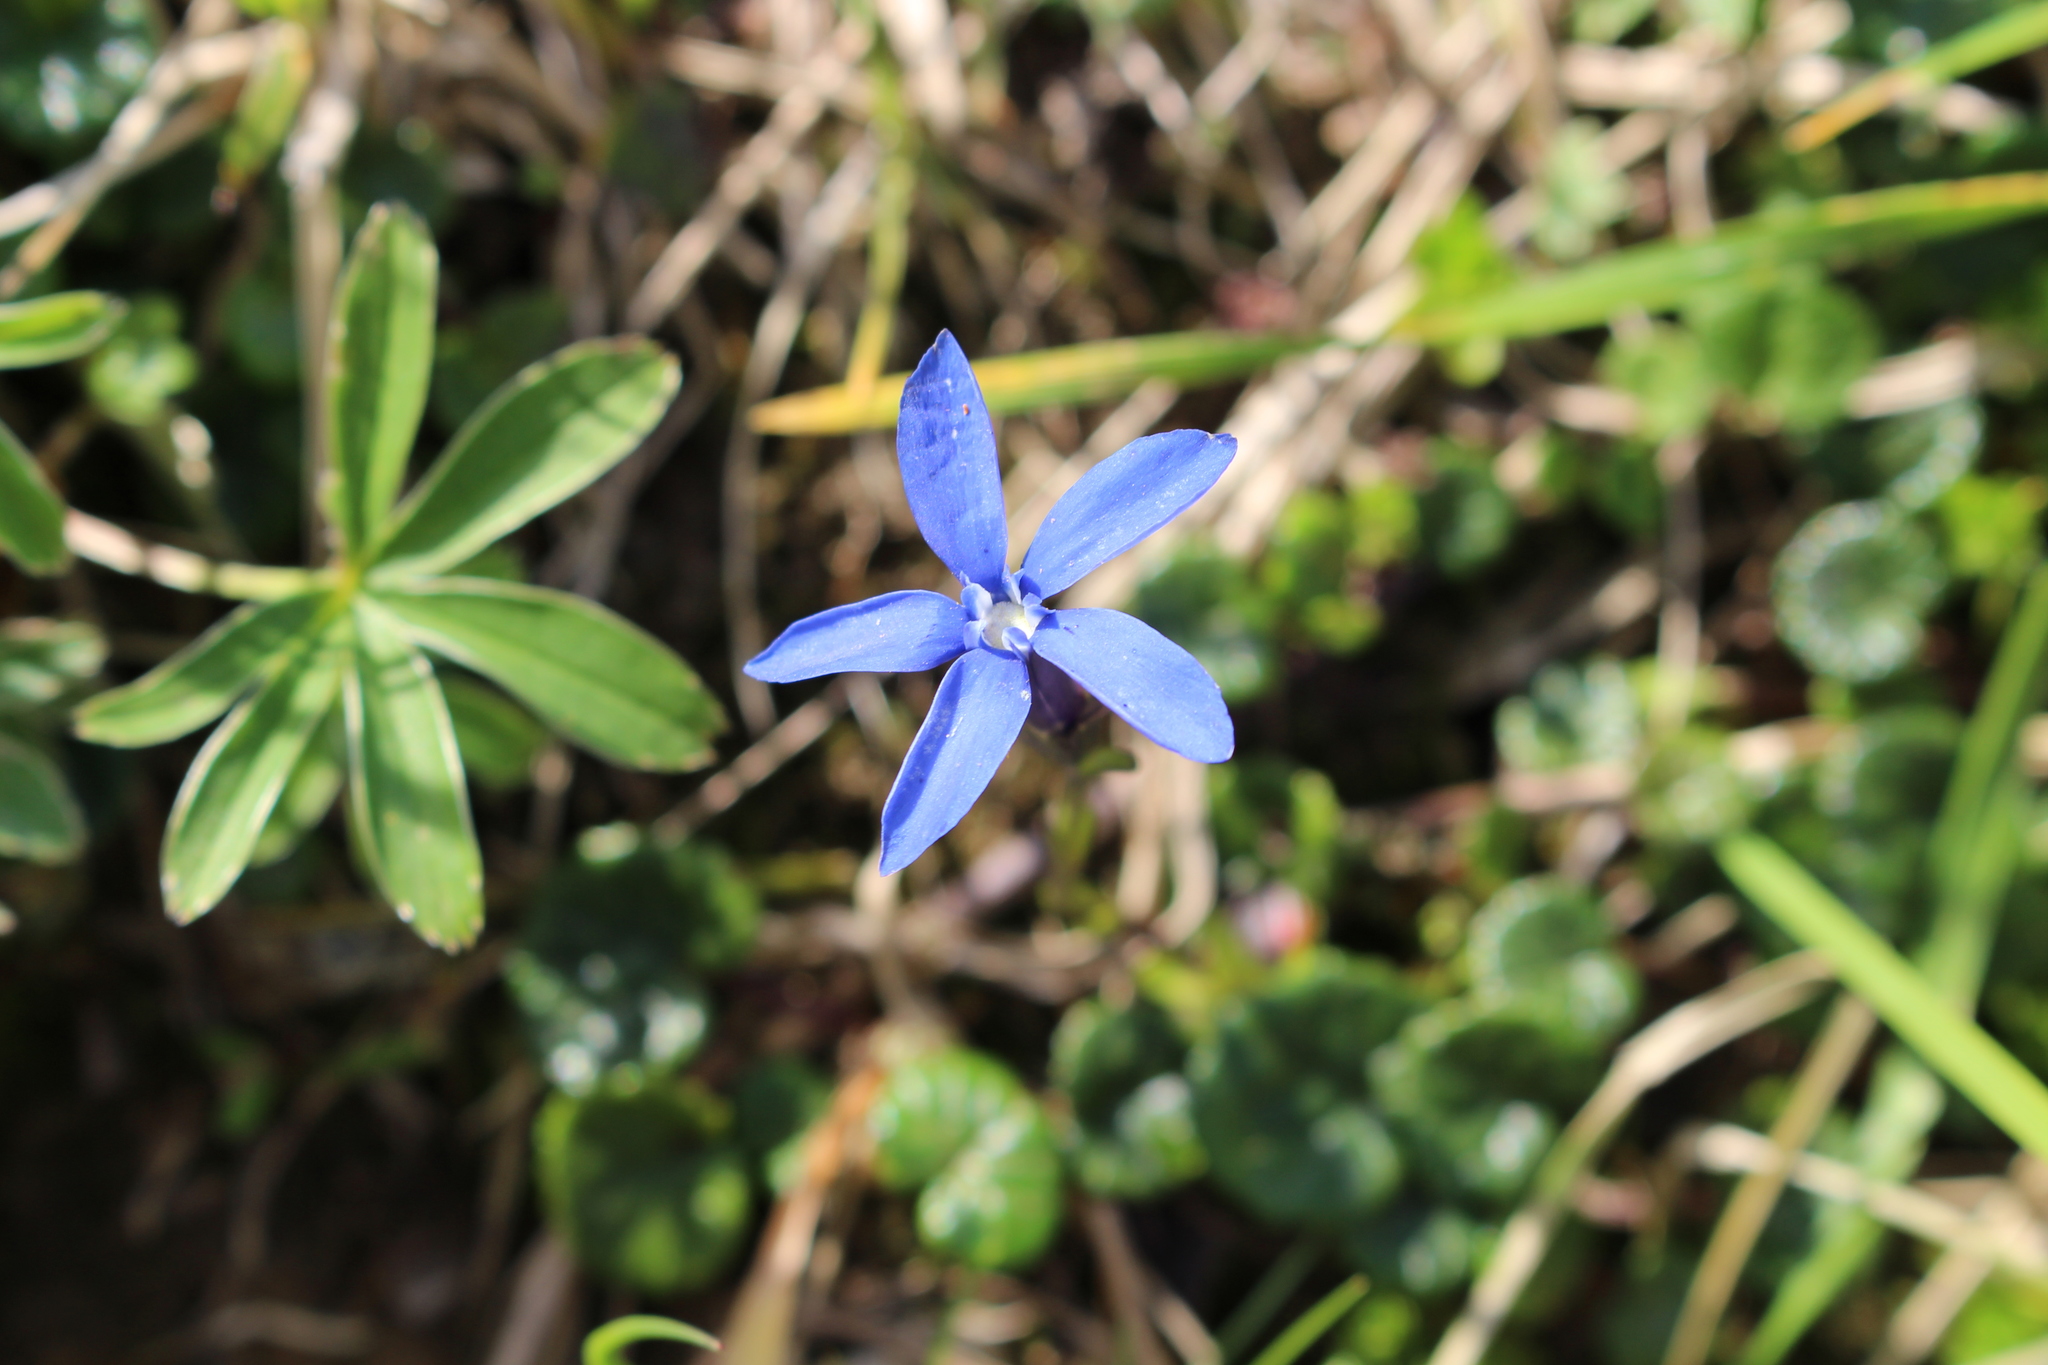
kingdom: Plantae
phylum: Tracheophyta
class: Magnoliopsida
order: Gentianales
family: Gentianaceae
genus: Gentiana
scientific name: Gentiana
